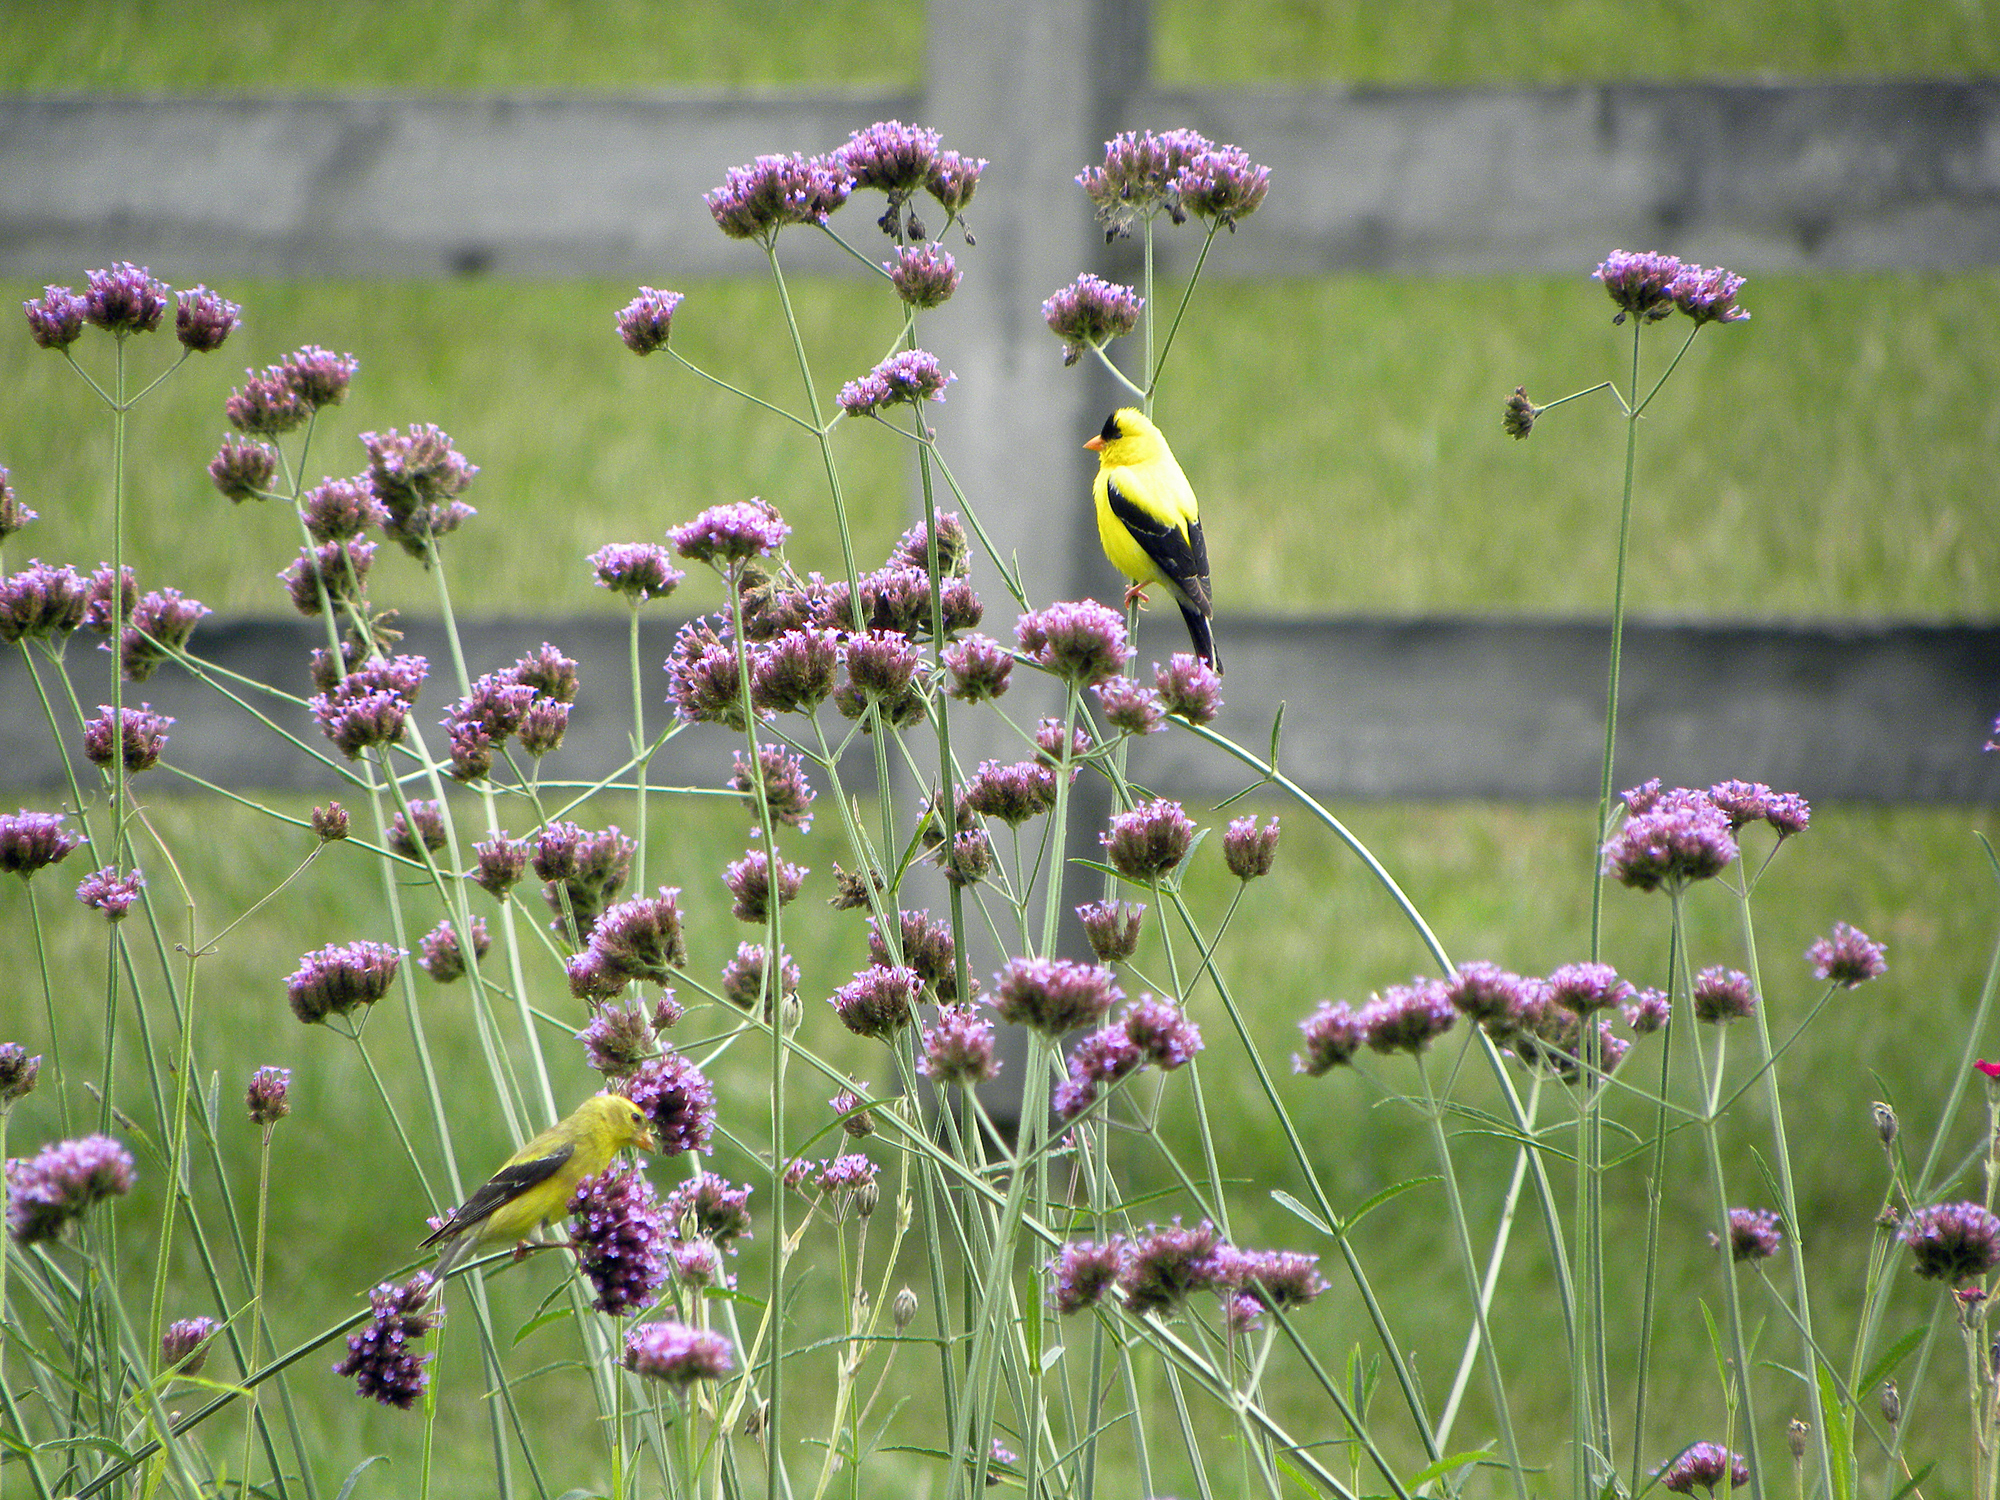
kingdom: Animalia
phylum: Chordata
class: Aves
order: Passeriformes
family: Fringillidae
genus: Spinus
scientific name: Spinus tristis
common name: American goldfinch
